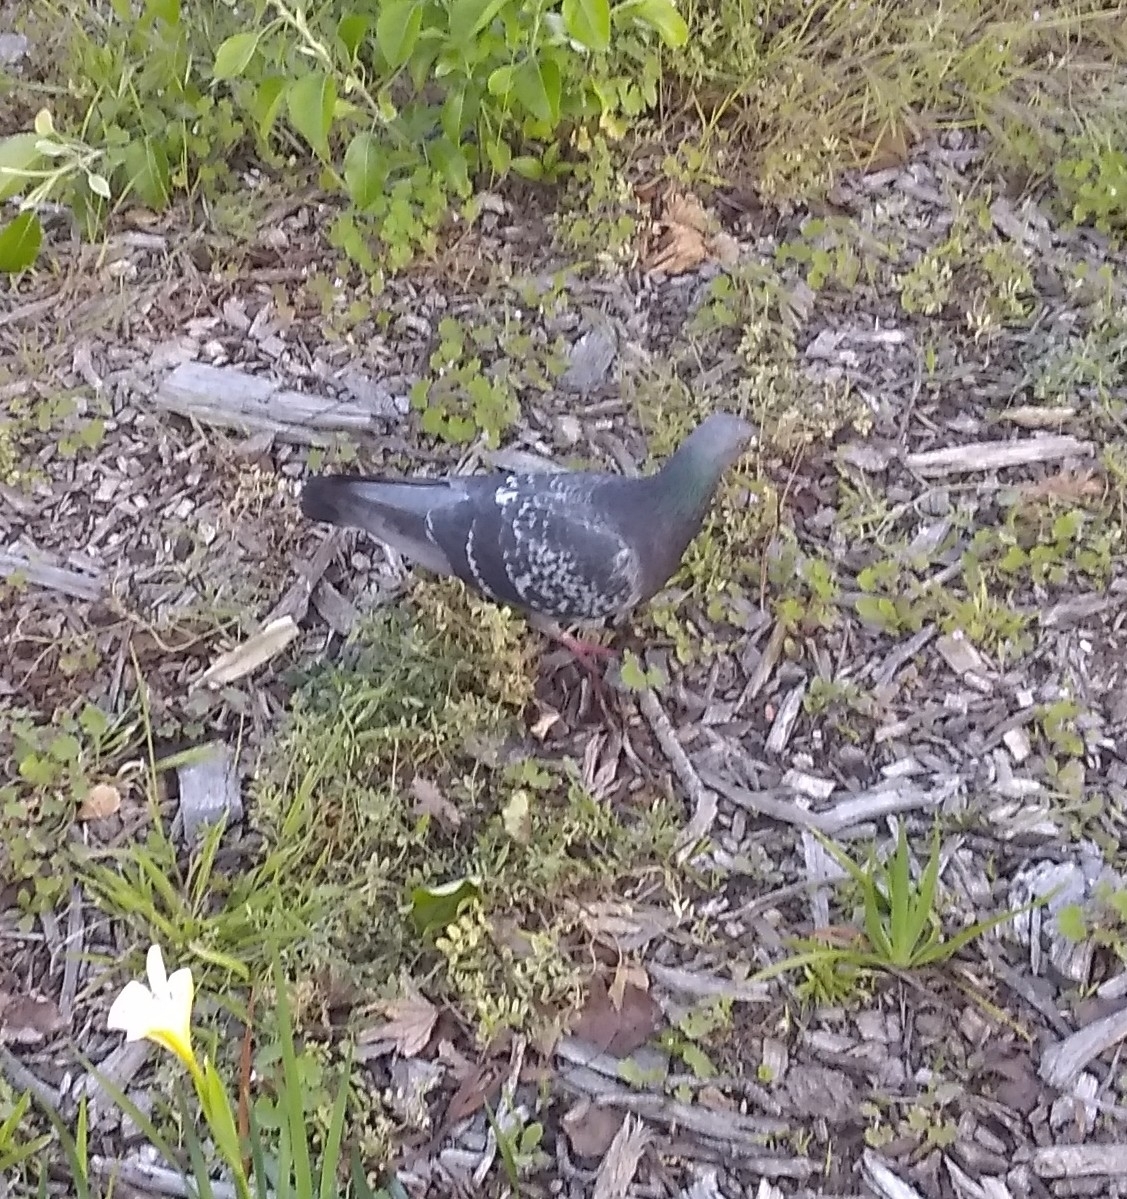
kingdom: Animalia
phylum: Chordata
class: Aves
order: Columbiformes
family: Columbidae
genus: Columba
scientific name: Columba livia
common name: Rock pigeon
